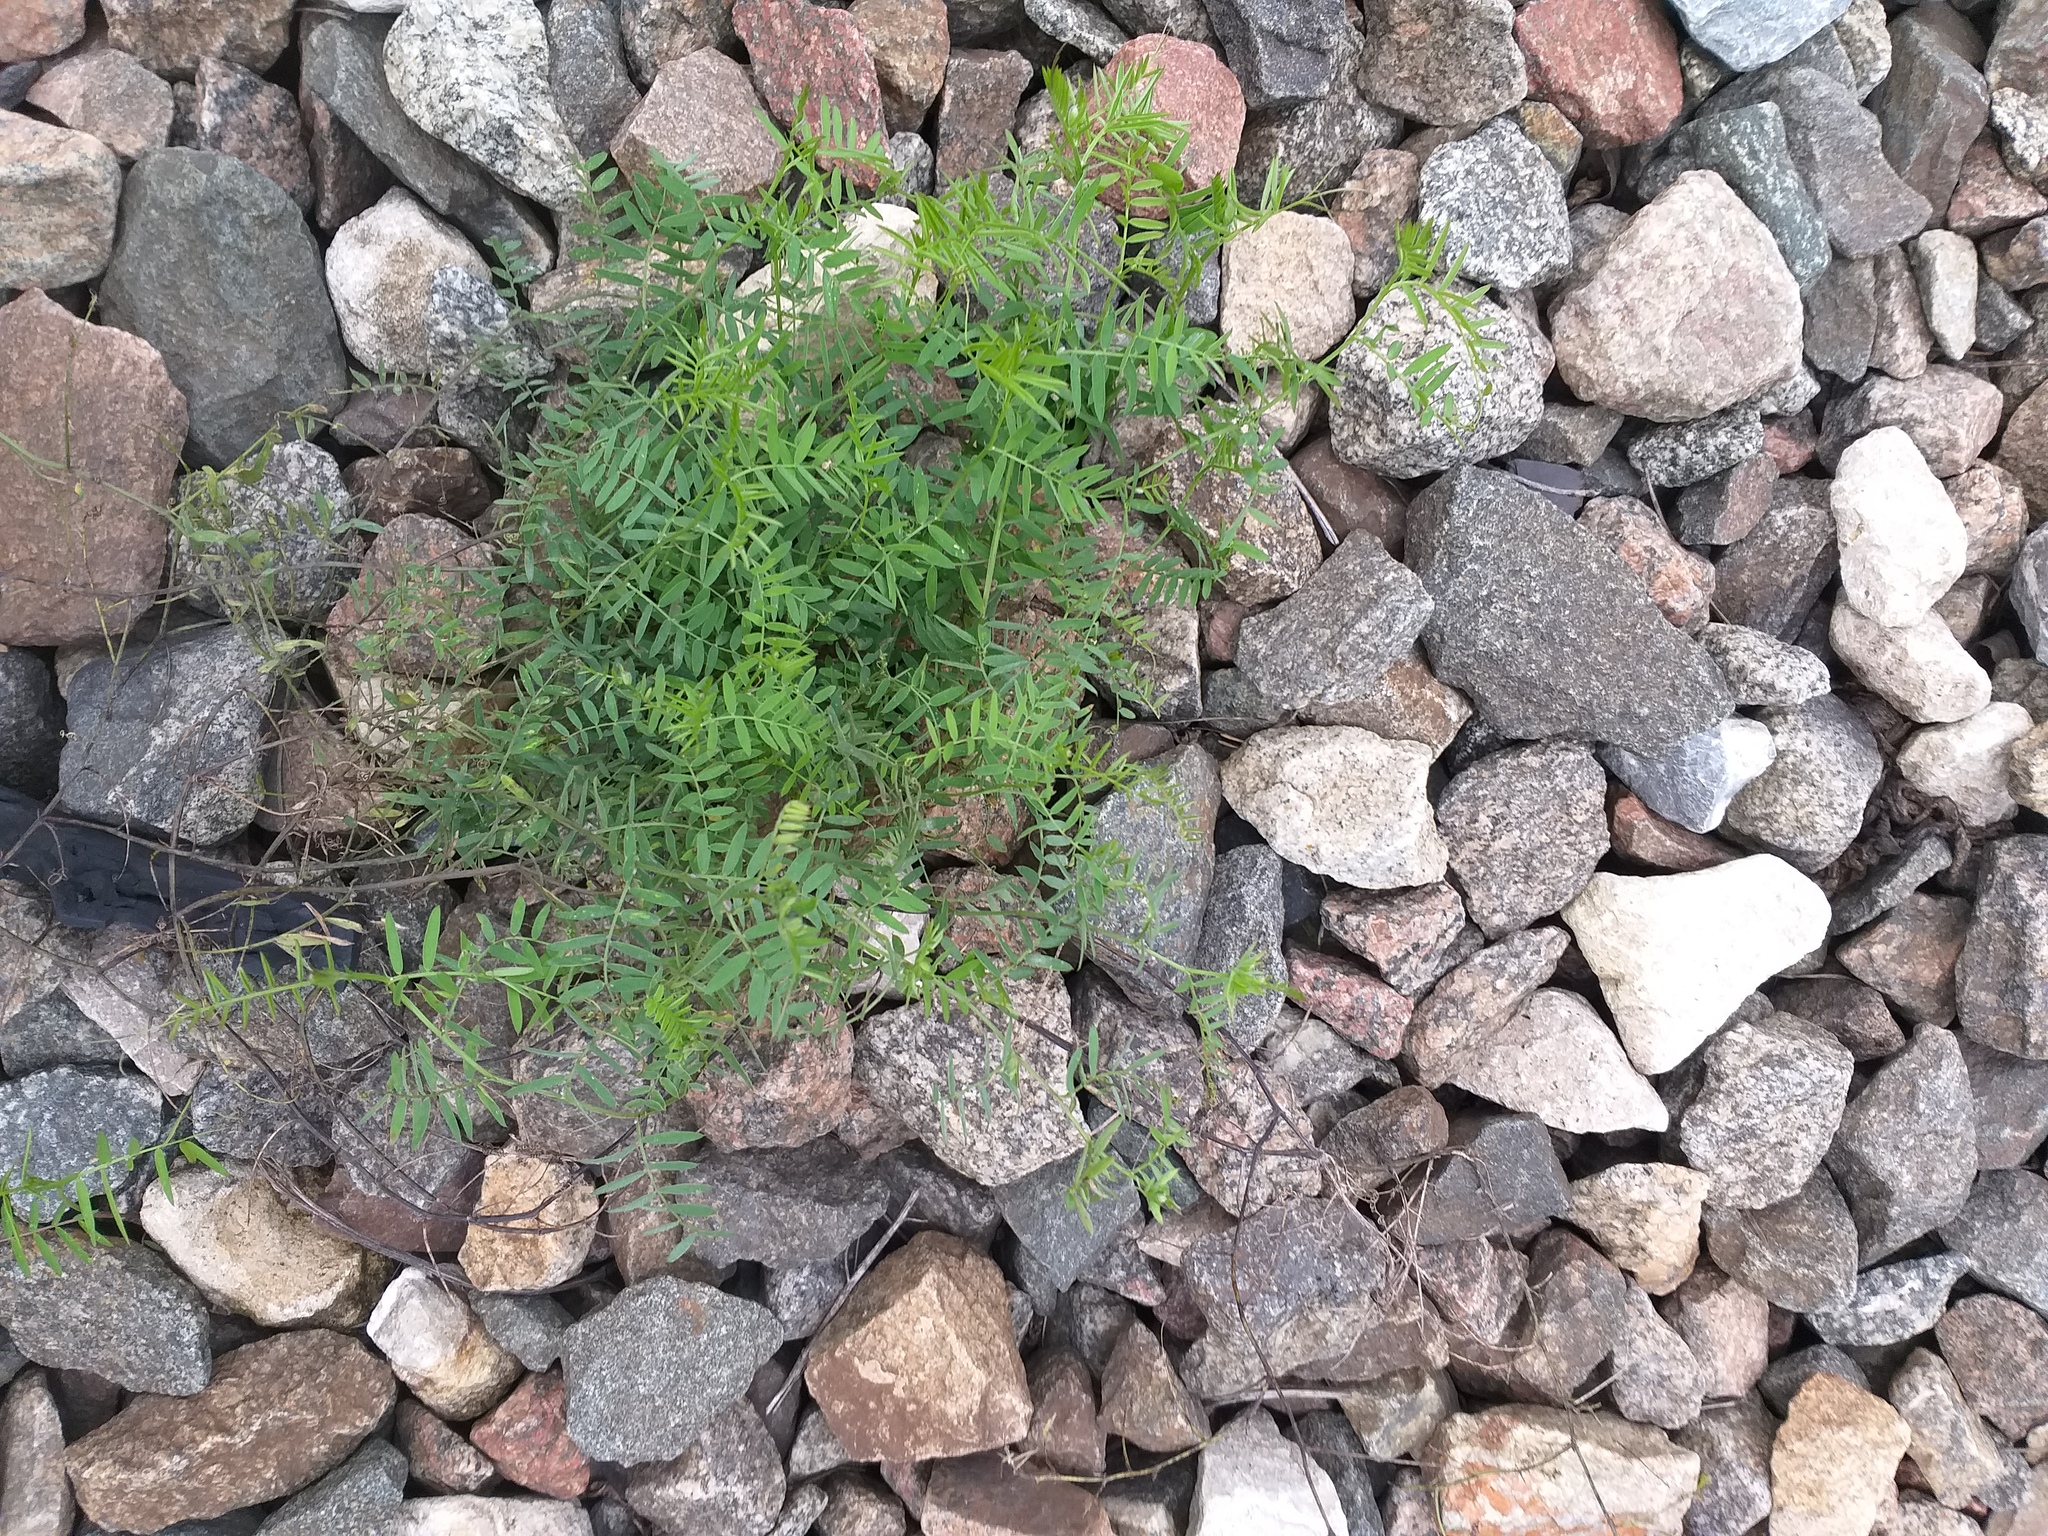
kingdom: Plantae
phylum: Tracheophyta
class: Magnoliopsida
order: Fabales
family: Fabaceae
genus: Vicia
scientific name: Vicia hirsuta
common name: Tiny vetch
